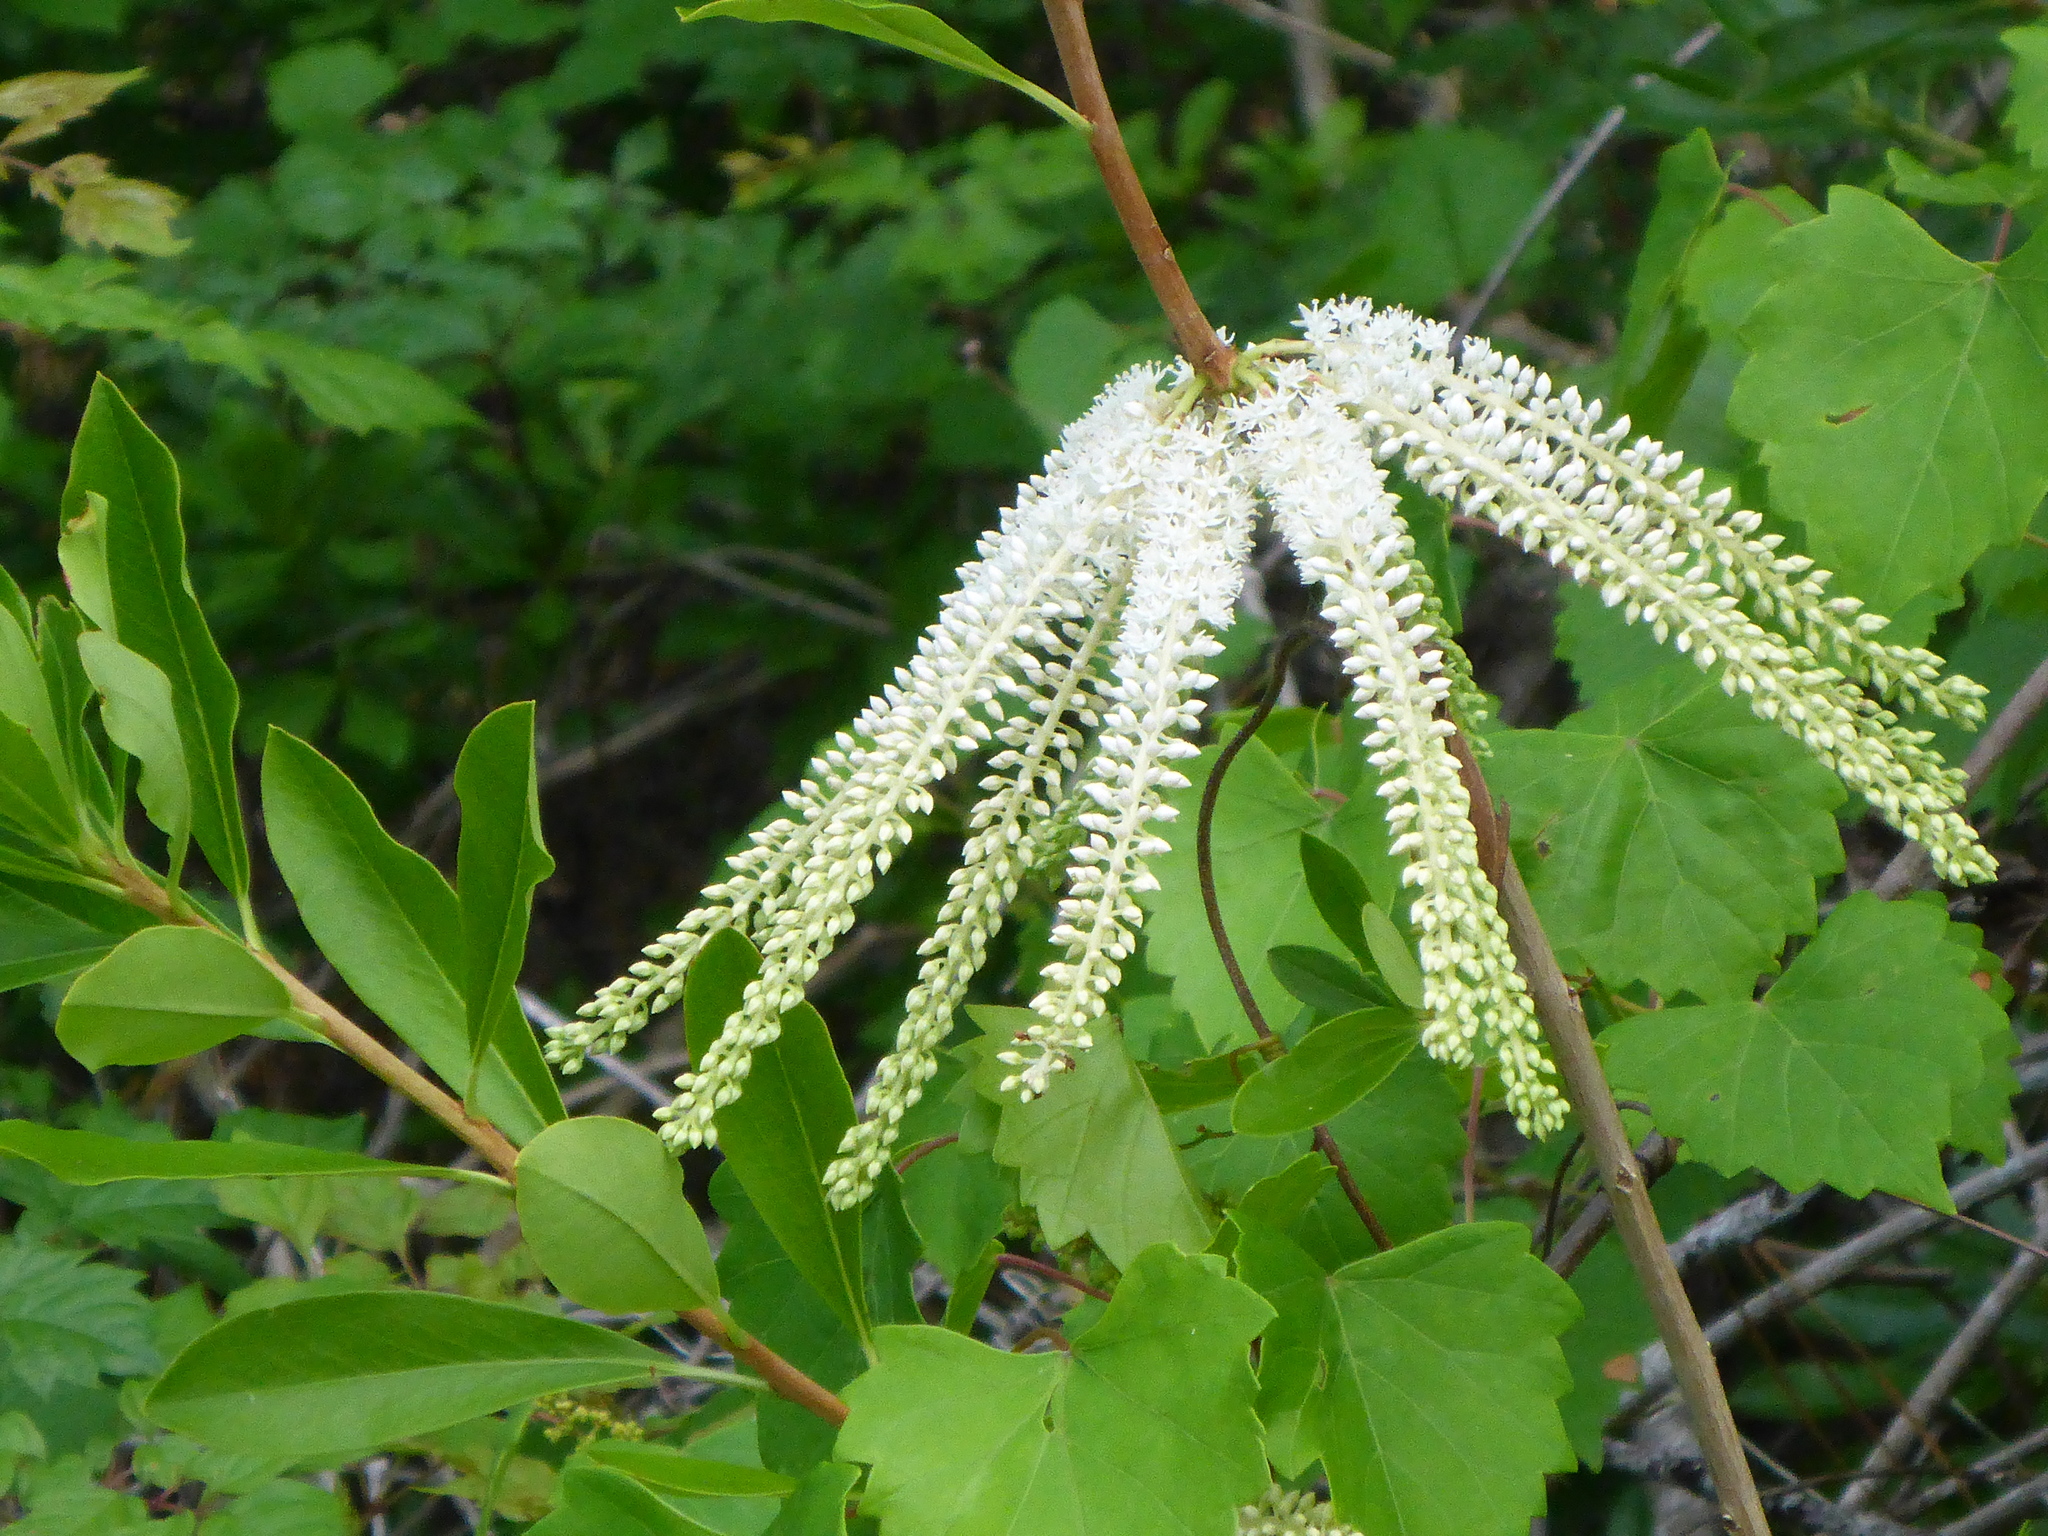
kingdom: Plantae
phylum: Tracheophyta
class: Magnoliopsida
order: Ericales
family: Cyrillaceae
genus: Cyrilla
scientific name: Cyrilla racemiflora
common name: Black titi
